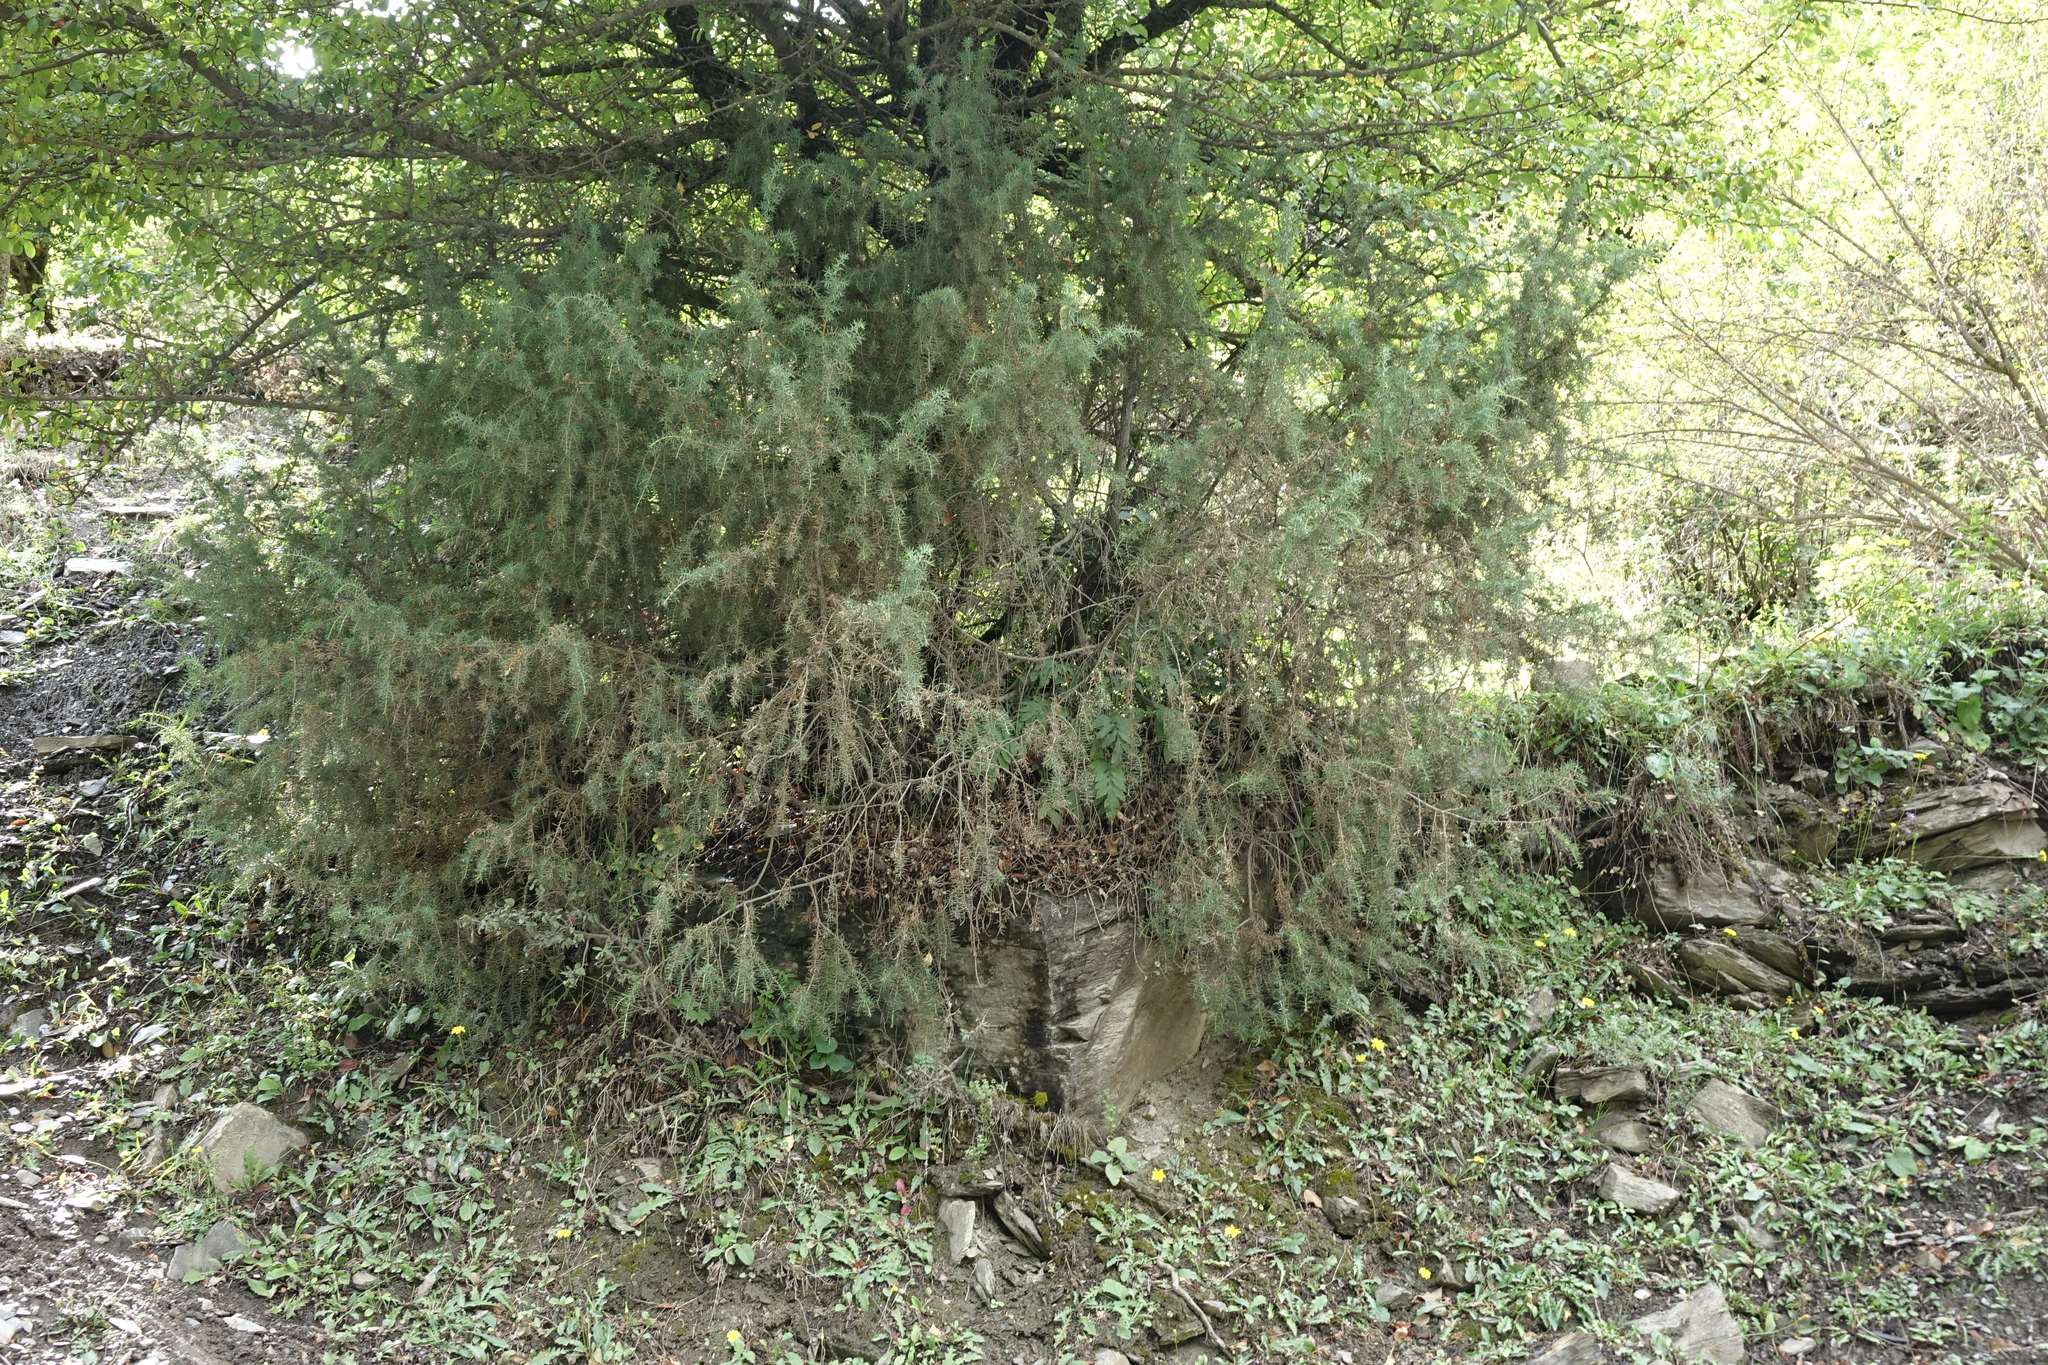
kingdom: Plantae
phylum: Tracheophyta
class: Pinopsida
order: Pinales
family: Cupressaceae
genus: Juniperus
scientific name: Juniperus communis
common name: Common juniper
